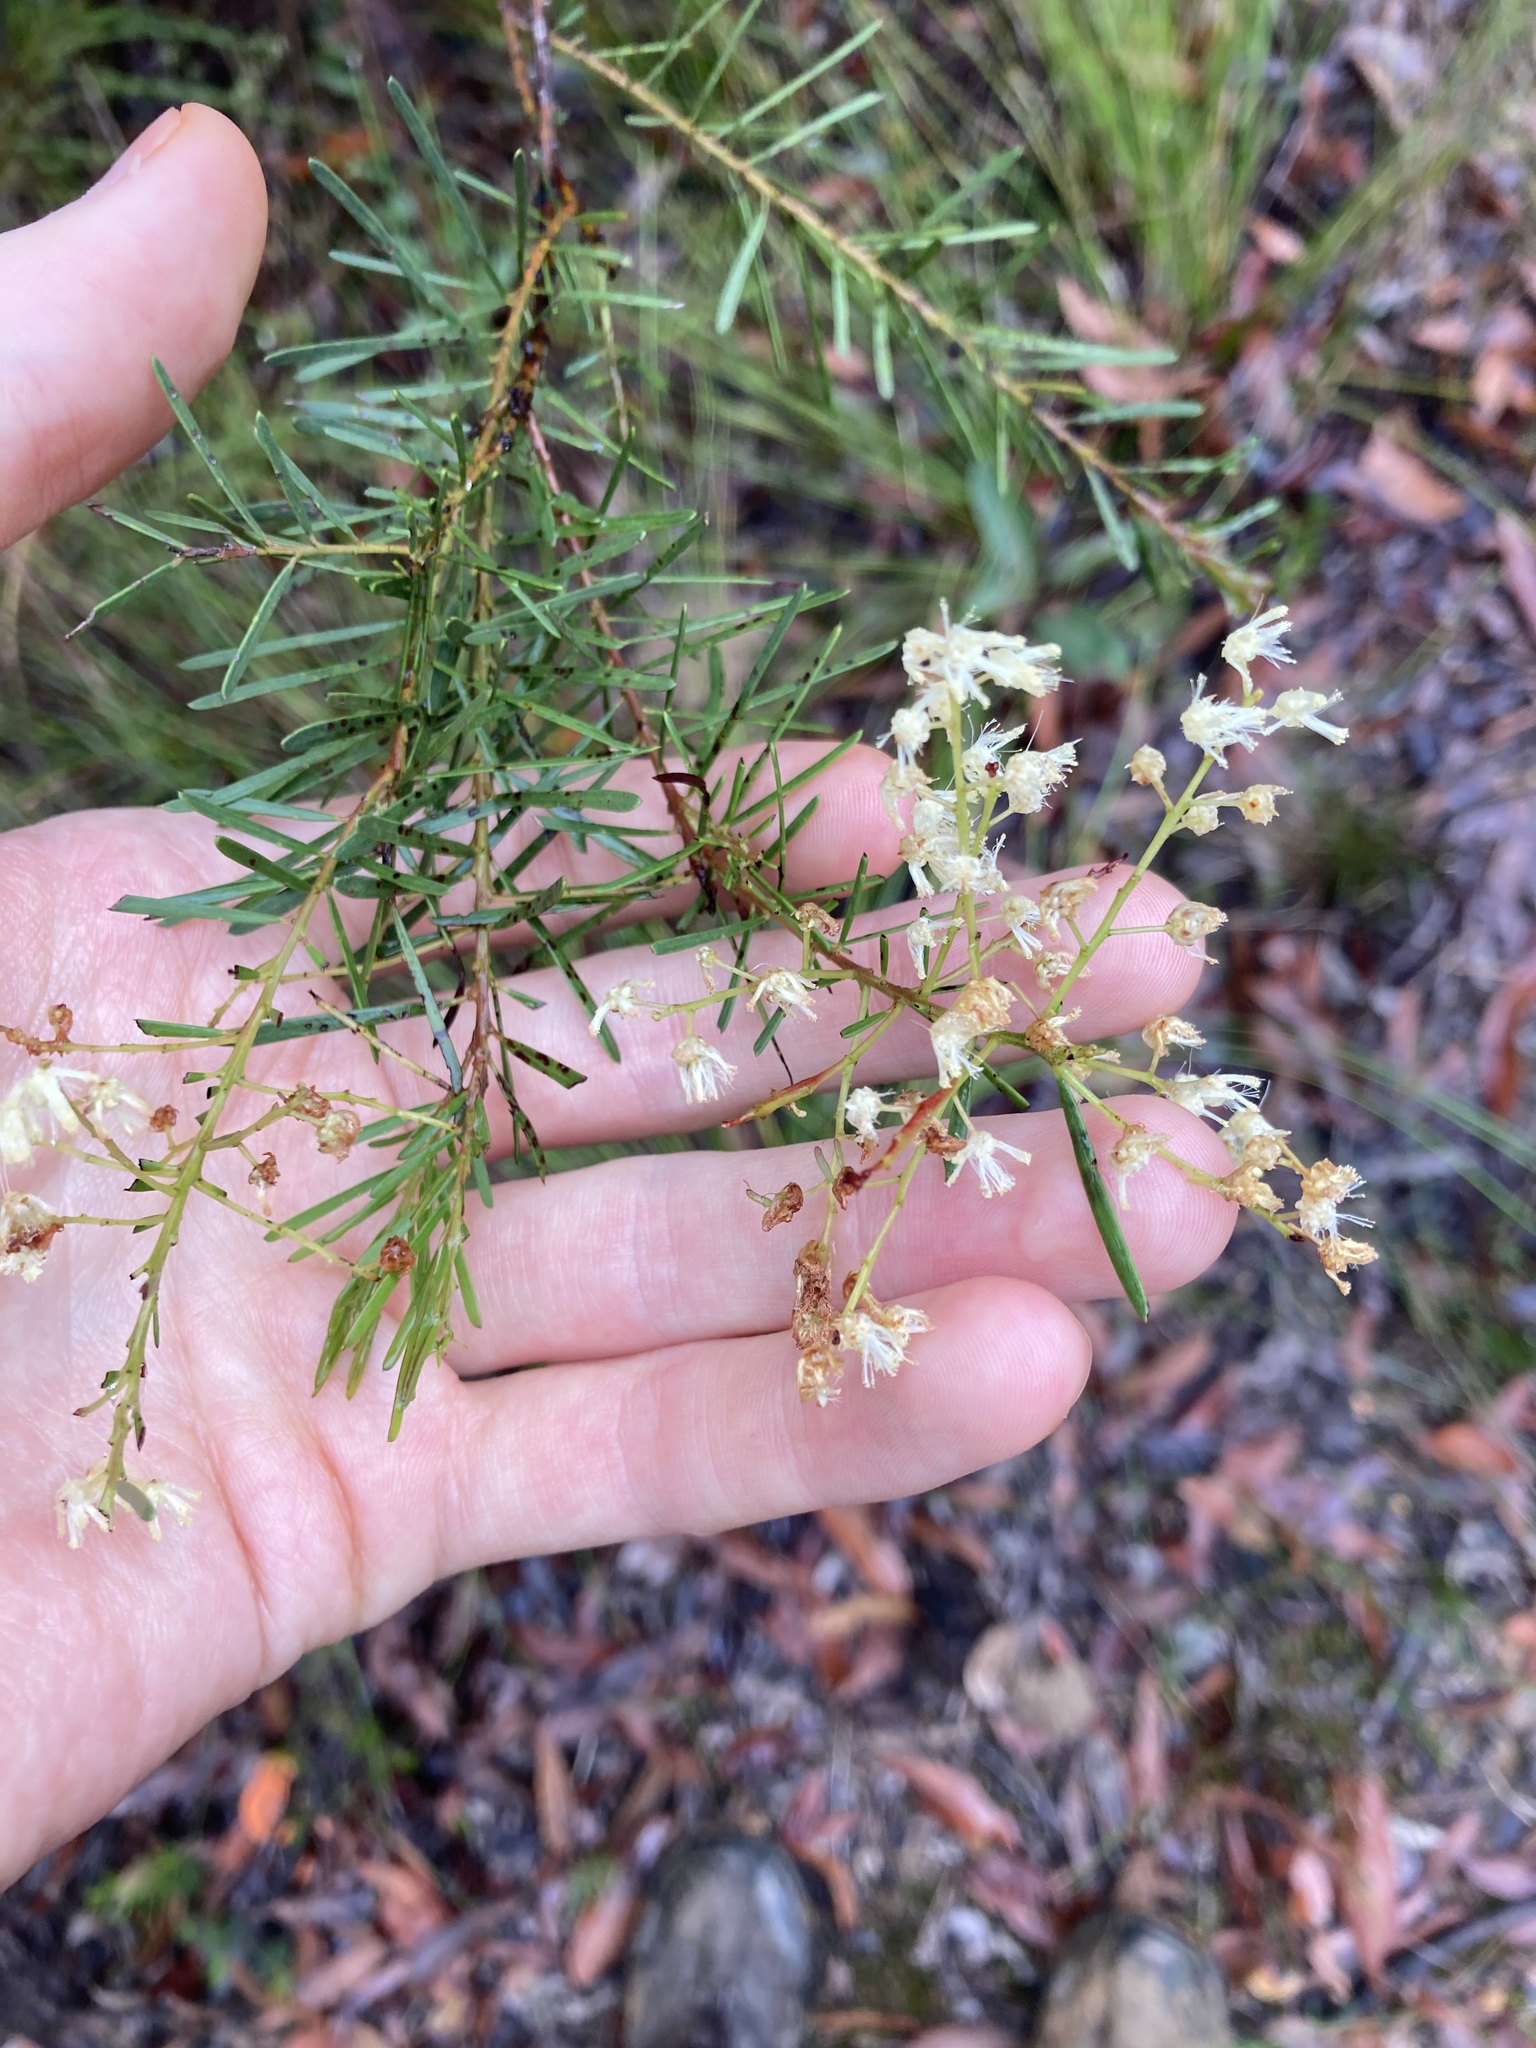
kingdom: Plantae
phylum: Tracheophyta
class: Magnoliopsida
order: Fabales
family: Fabaceae
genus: Acacia
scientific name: Acacia linifolia
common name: White wattle
